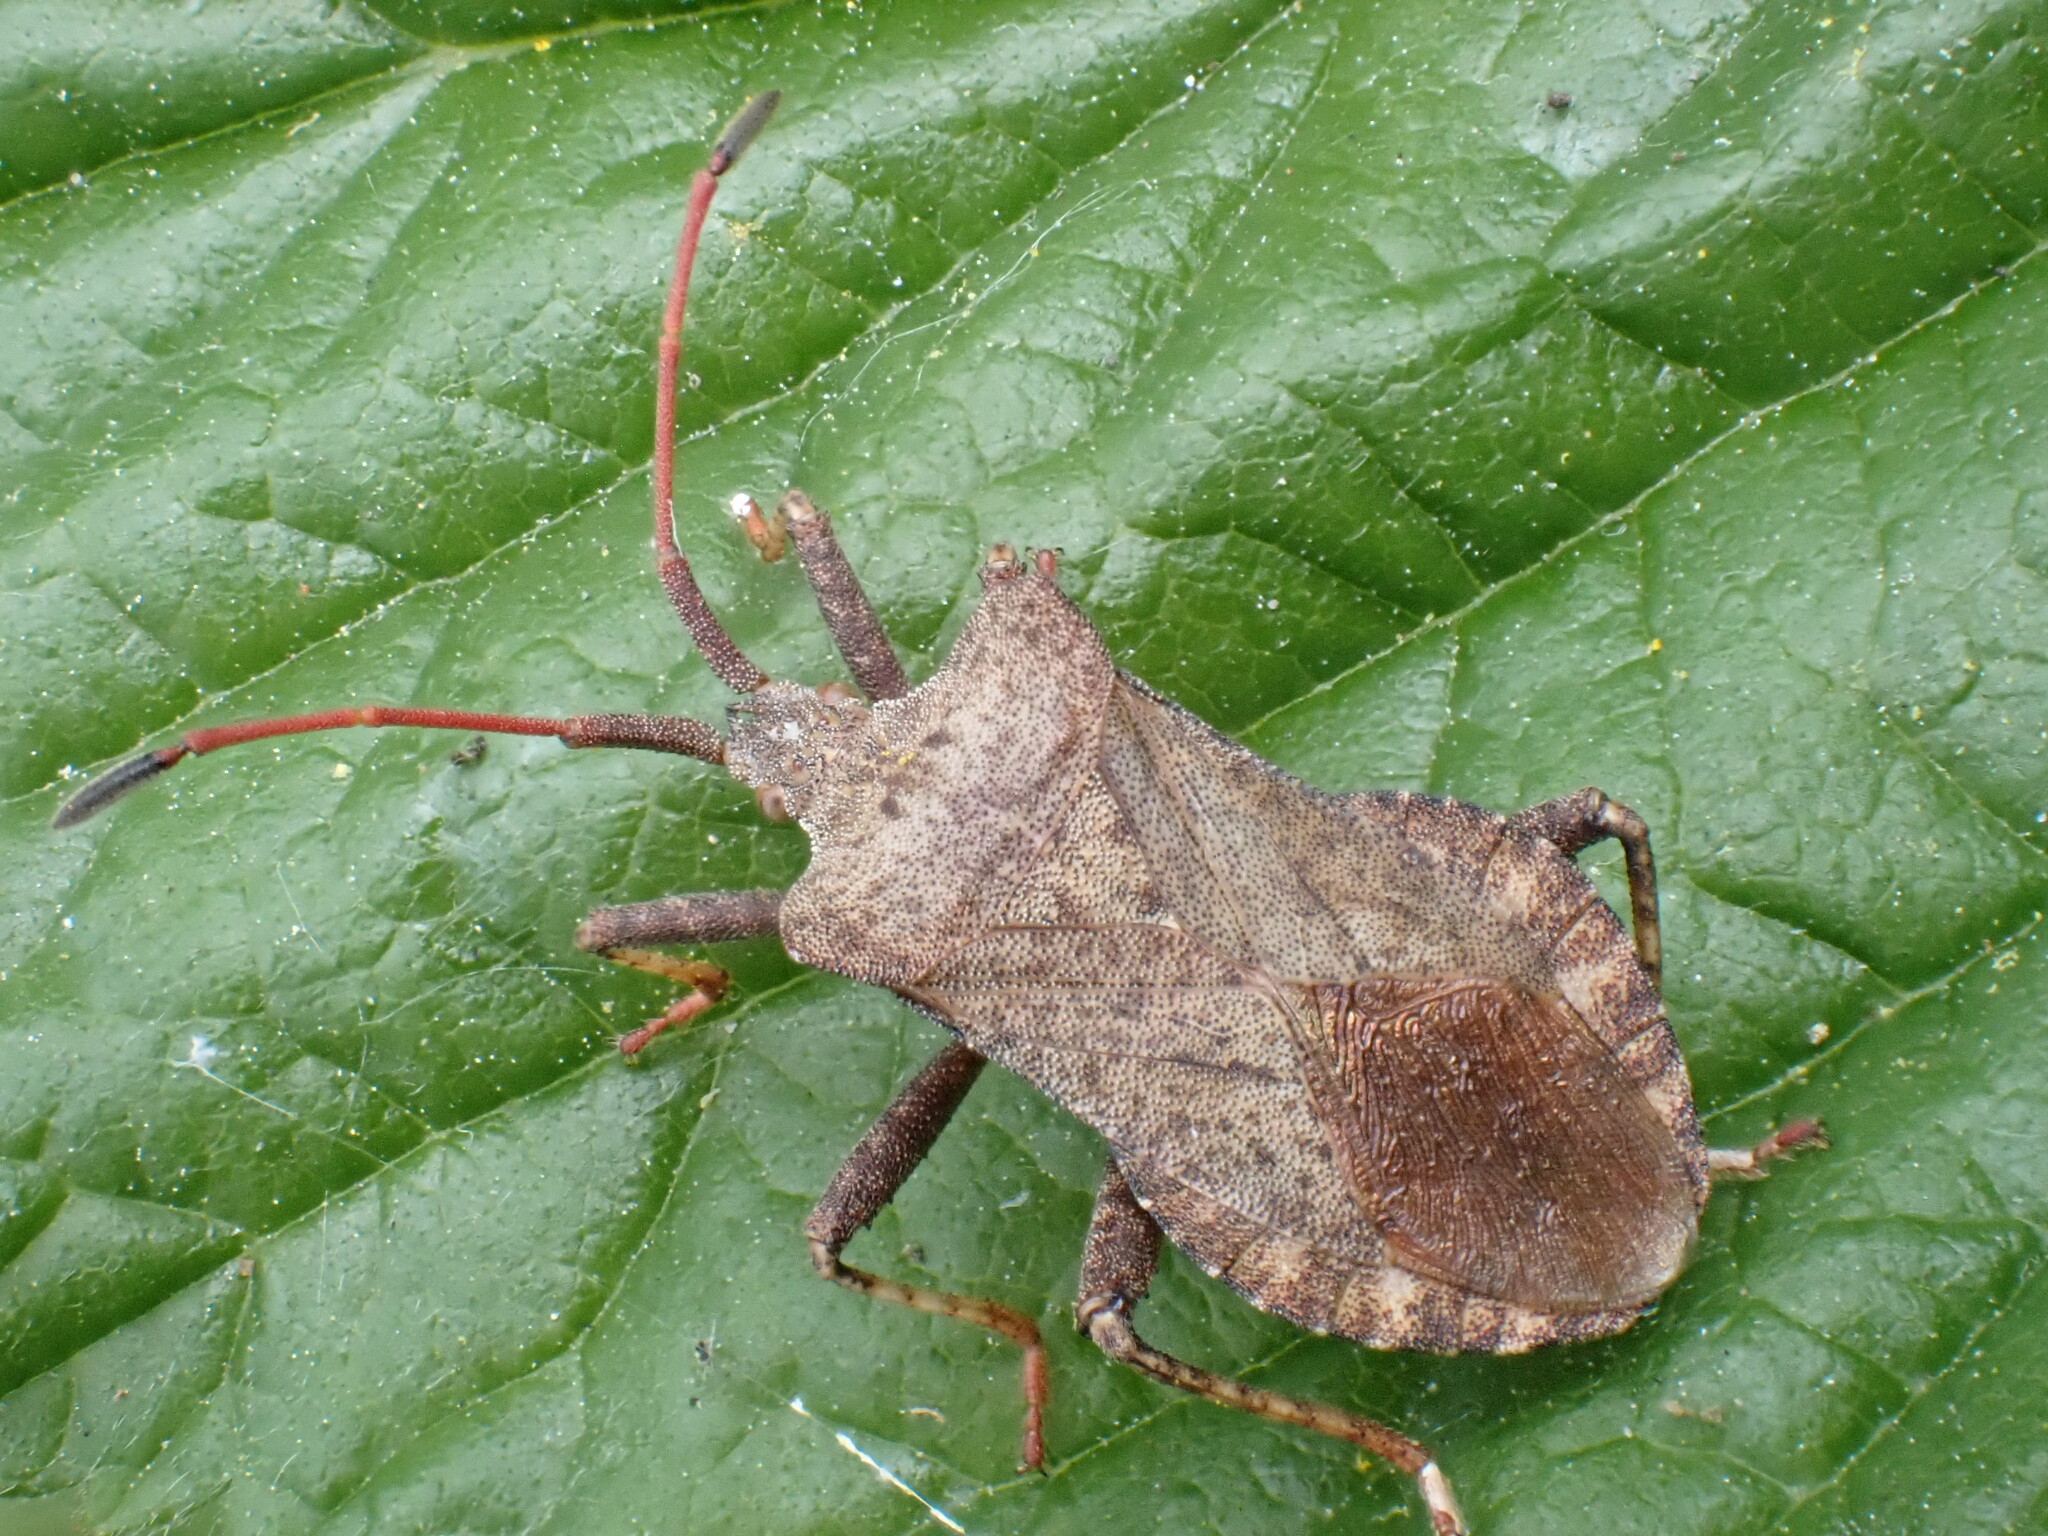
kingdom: Animalia
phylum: Arthropoda
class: Insecta
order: Hemiptera
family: Coreidae
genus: Coreus
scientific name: Coreus marginatus
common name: Dock bug
